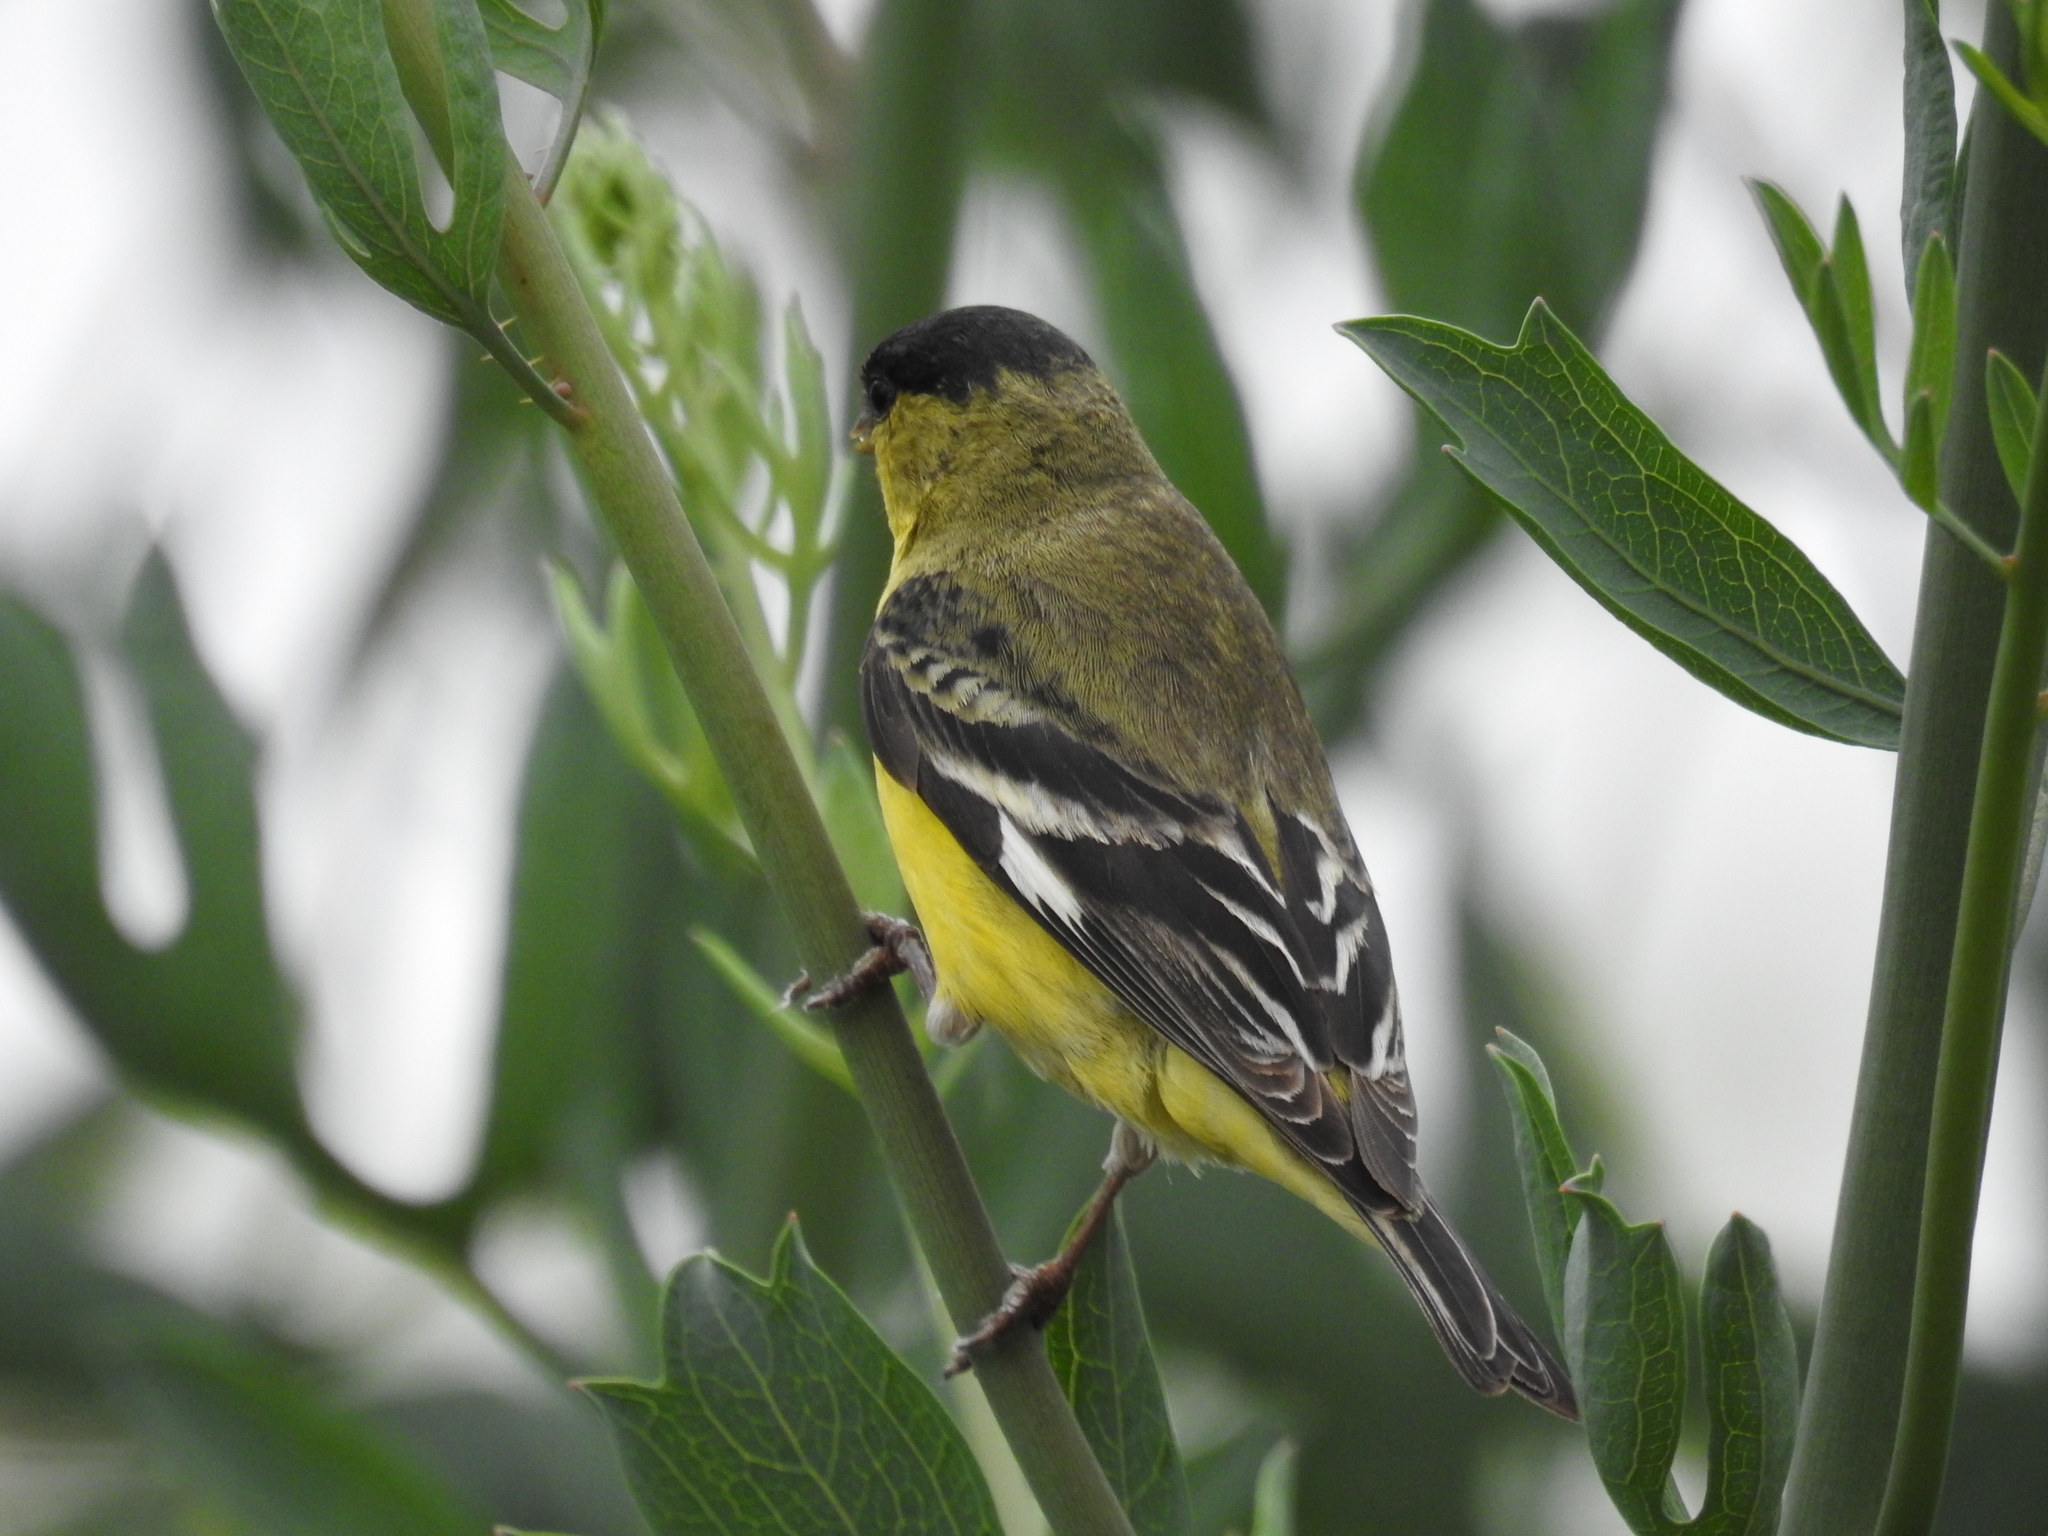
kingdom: Animalia
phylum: Chordata
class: Aves
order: Passeriformes
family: Fringillidae
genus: Spinus
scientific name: Spinus psaltria
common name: Lesser goldfinch
